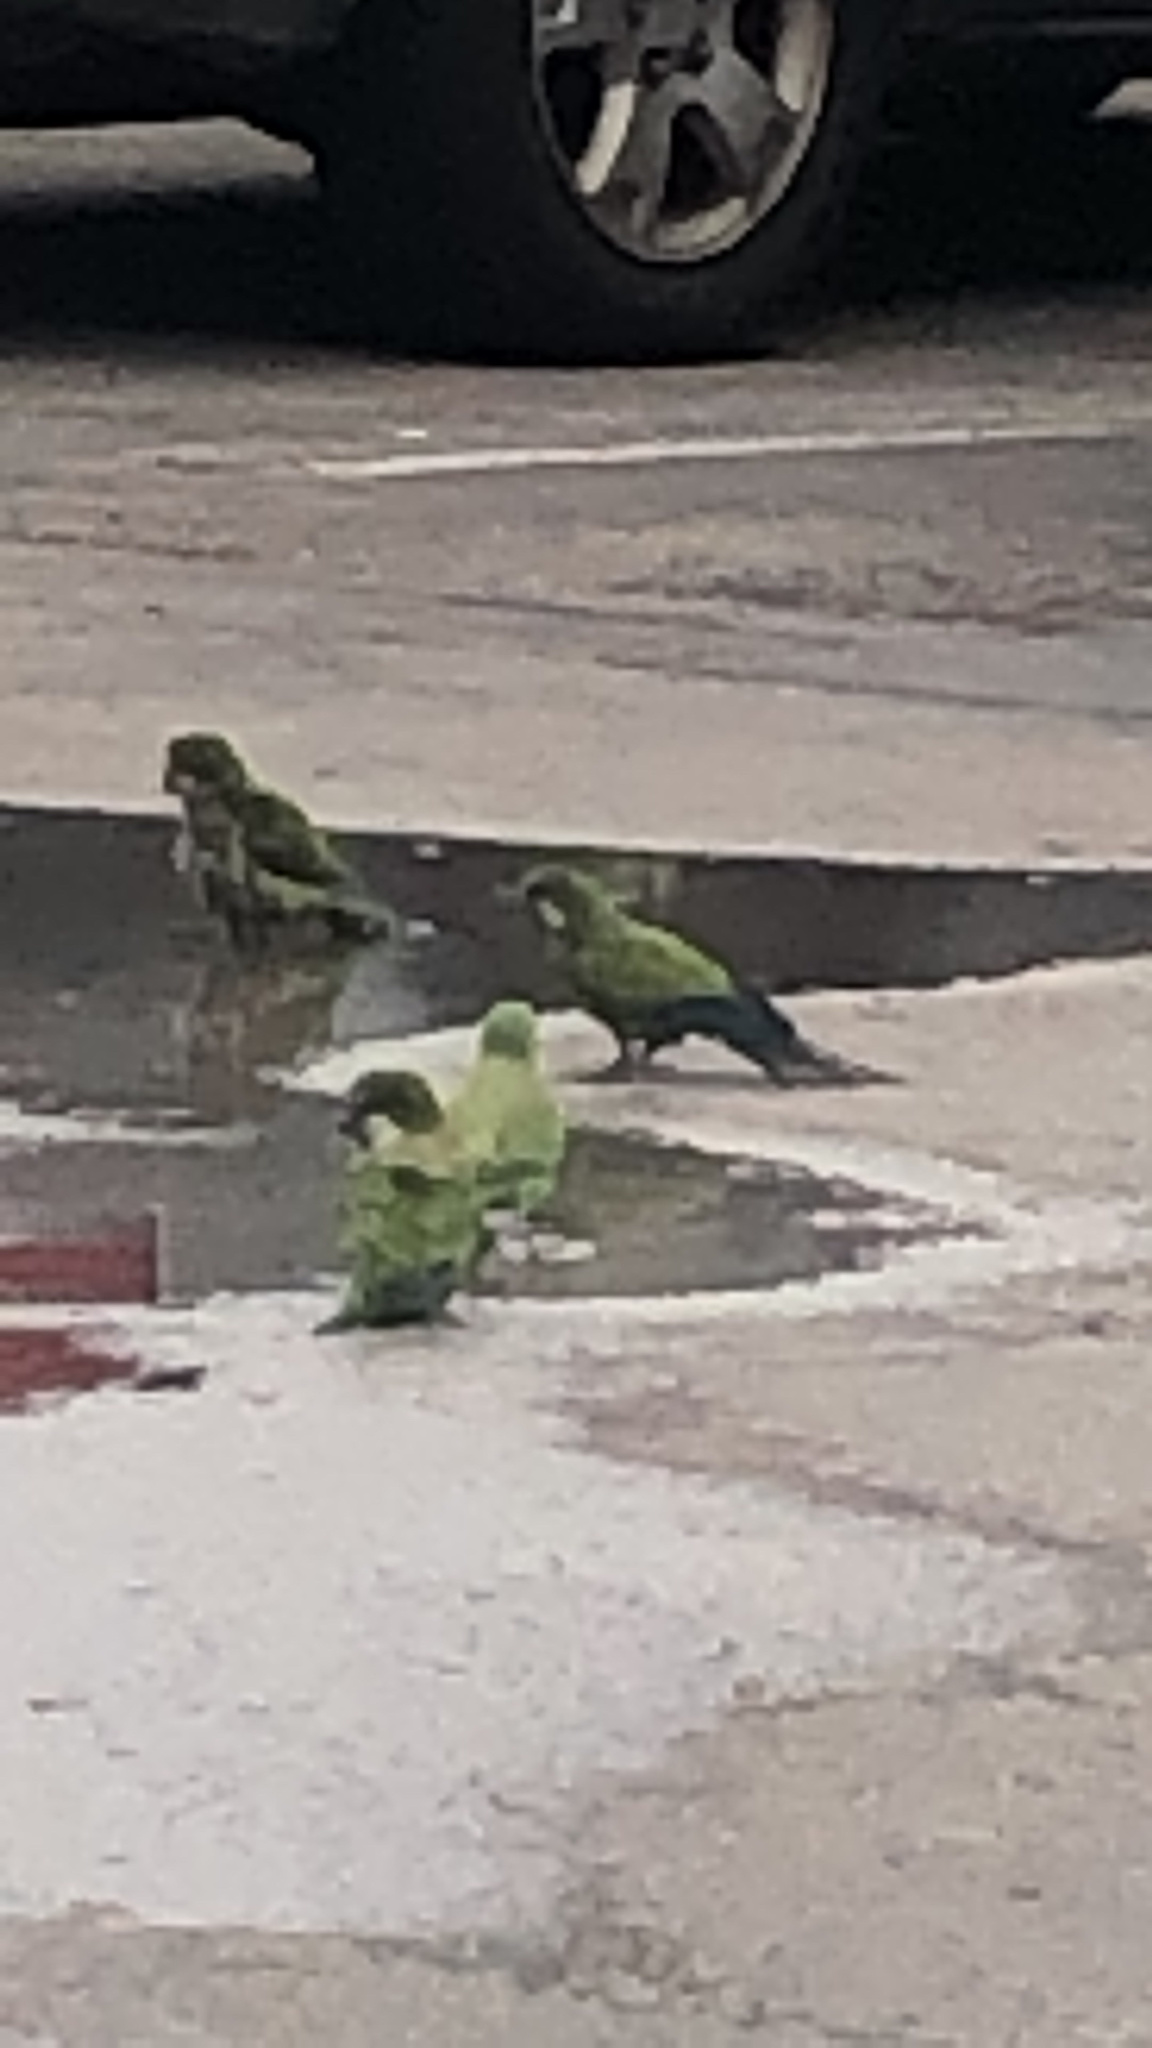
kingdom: Animalia
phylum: Chordata
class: Aves
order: Psittaciformes
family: Psittacidae
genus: Myiopsitta
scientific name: Myiopsitta monachus
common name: Monk parakeet
